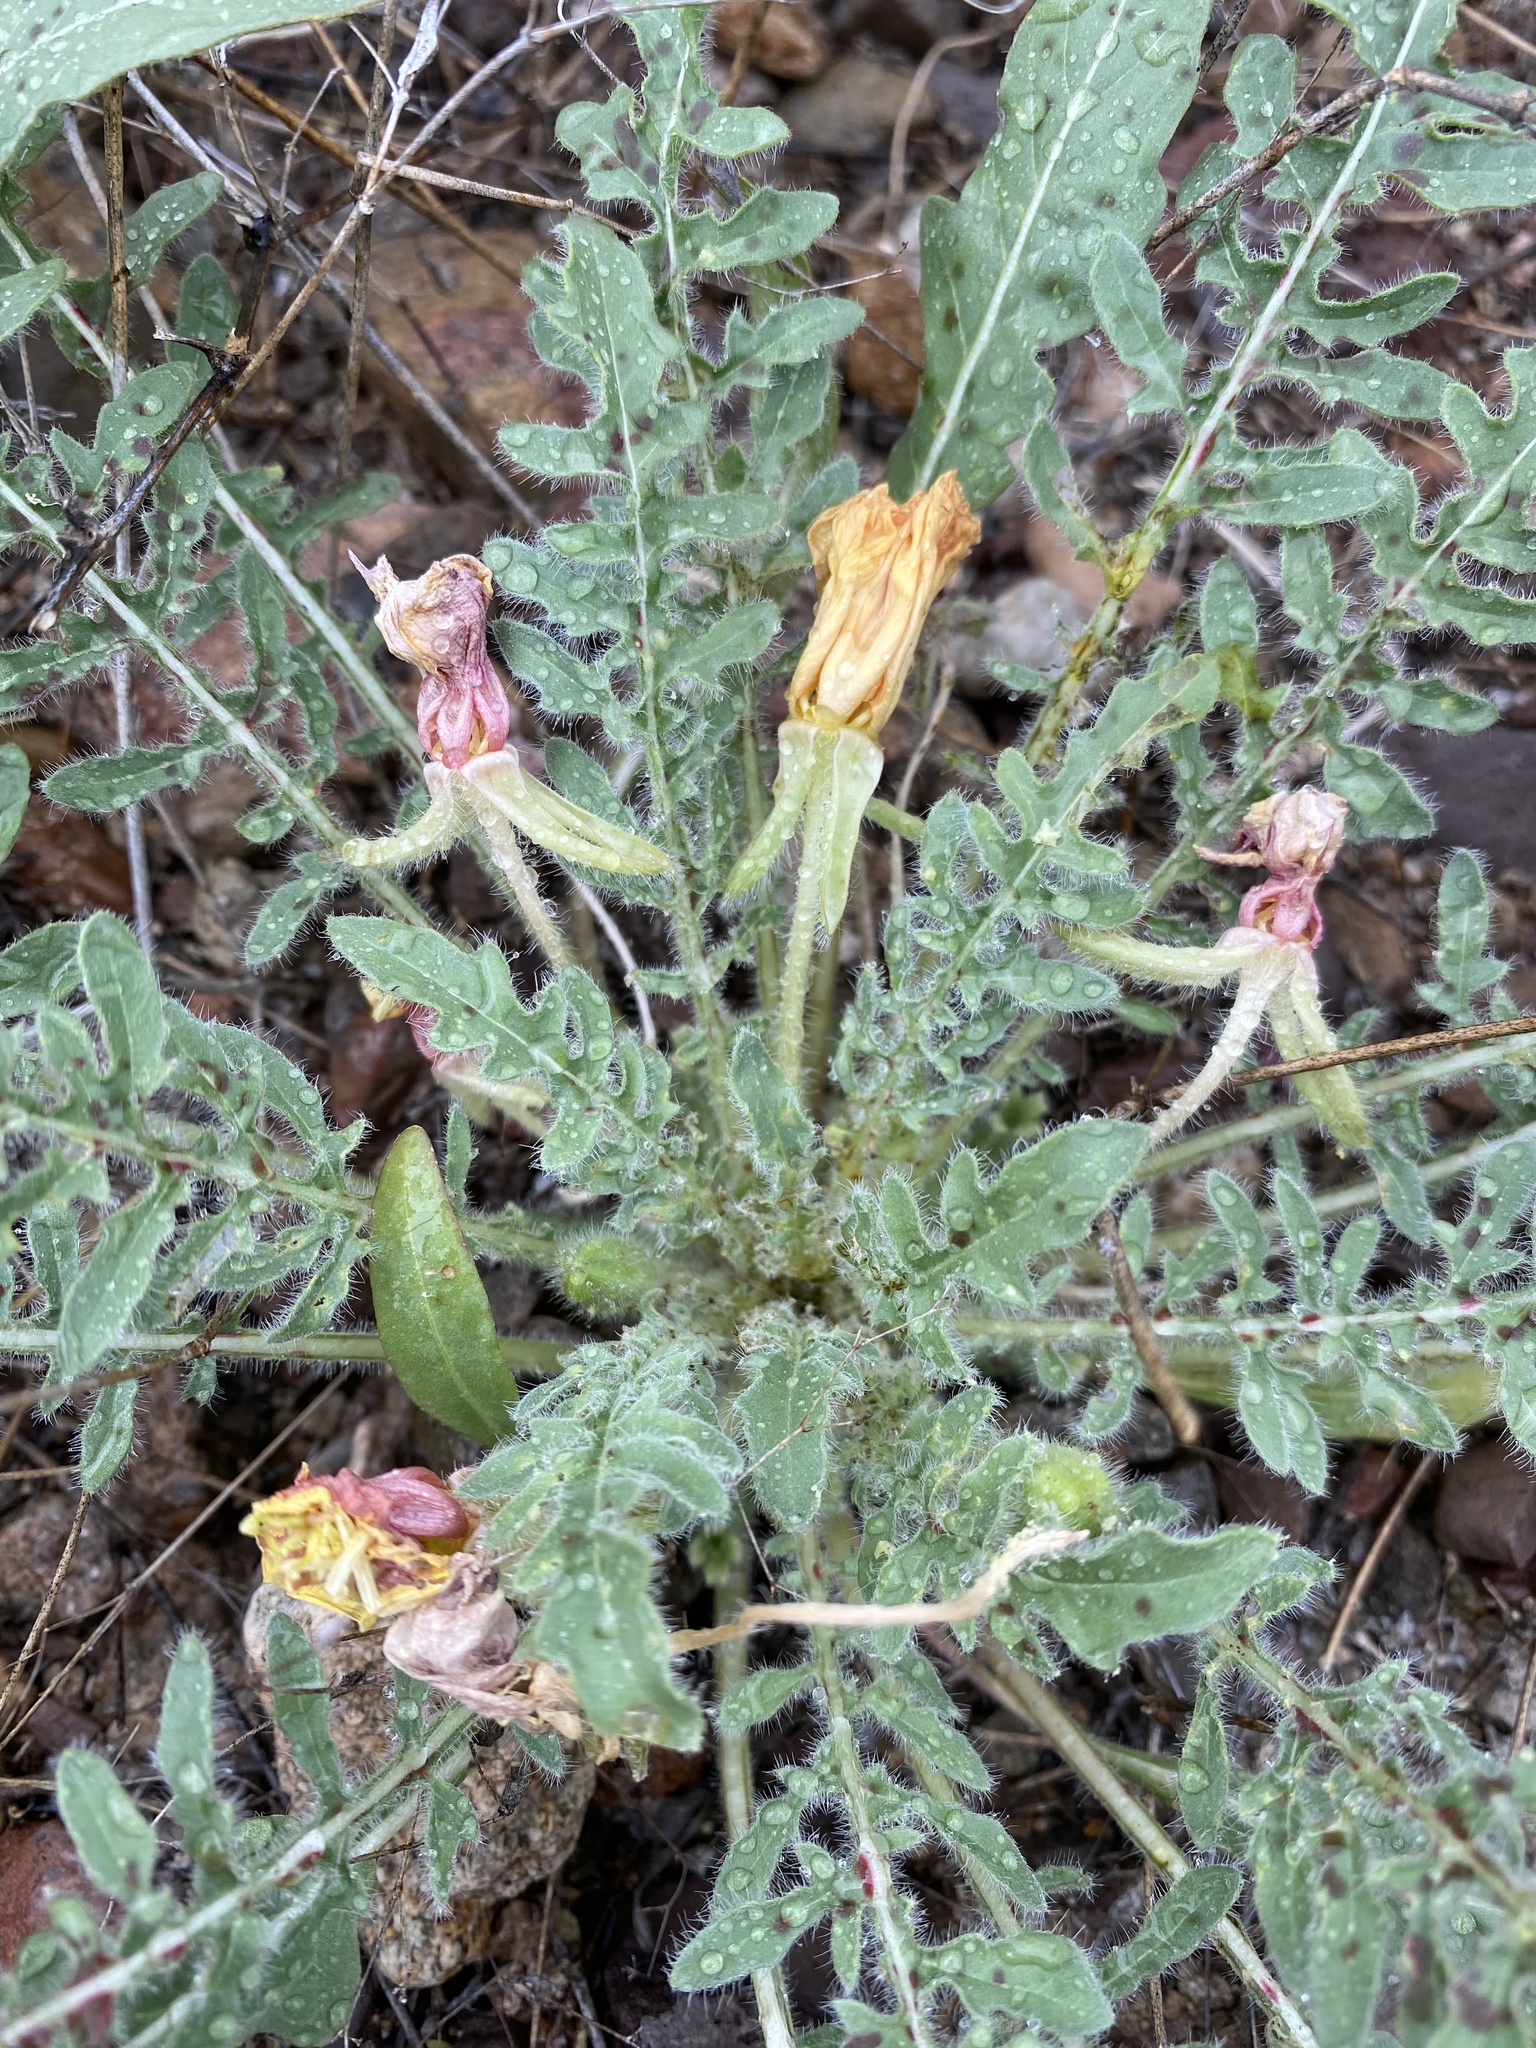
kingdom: Plantae
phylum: Tracheophyta
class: Magnoliopsida
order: Myrtales
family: Onagraceae
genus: Oenothera
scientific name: Oenothera primiveris
